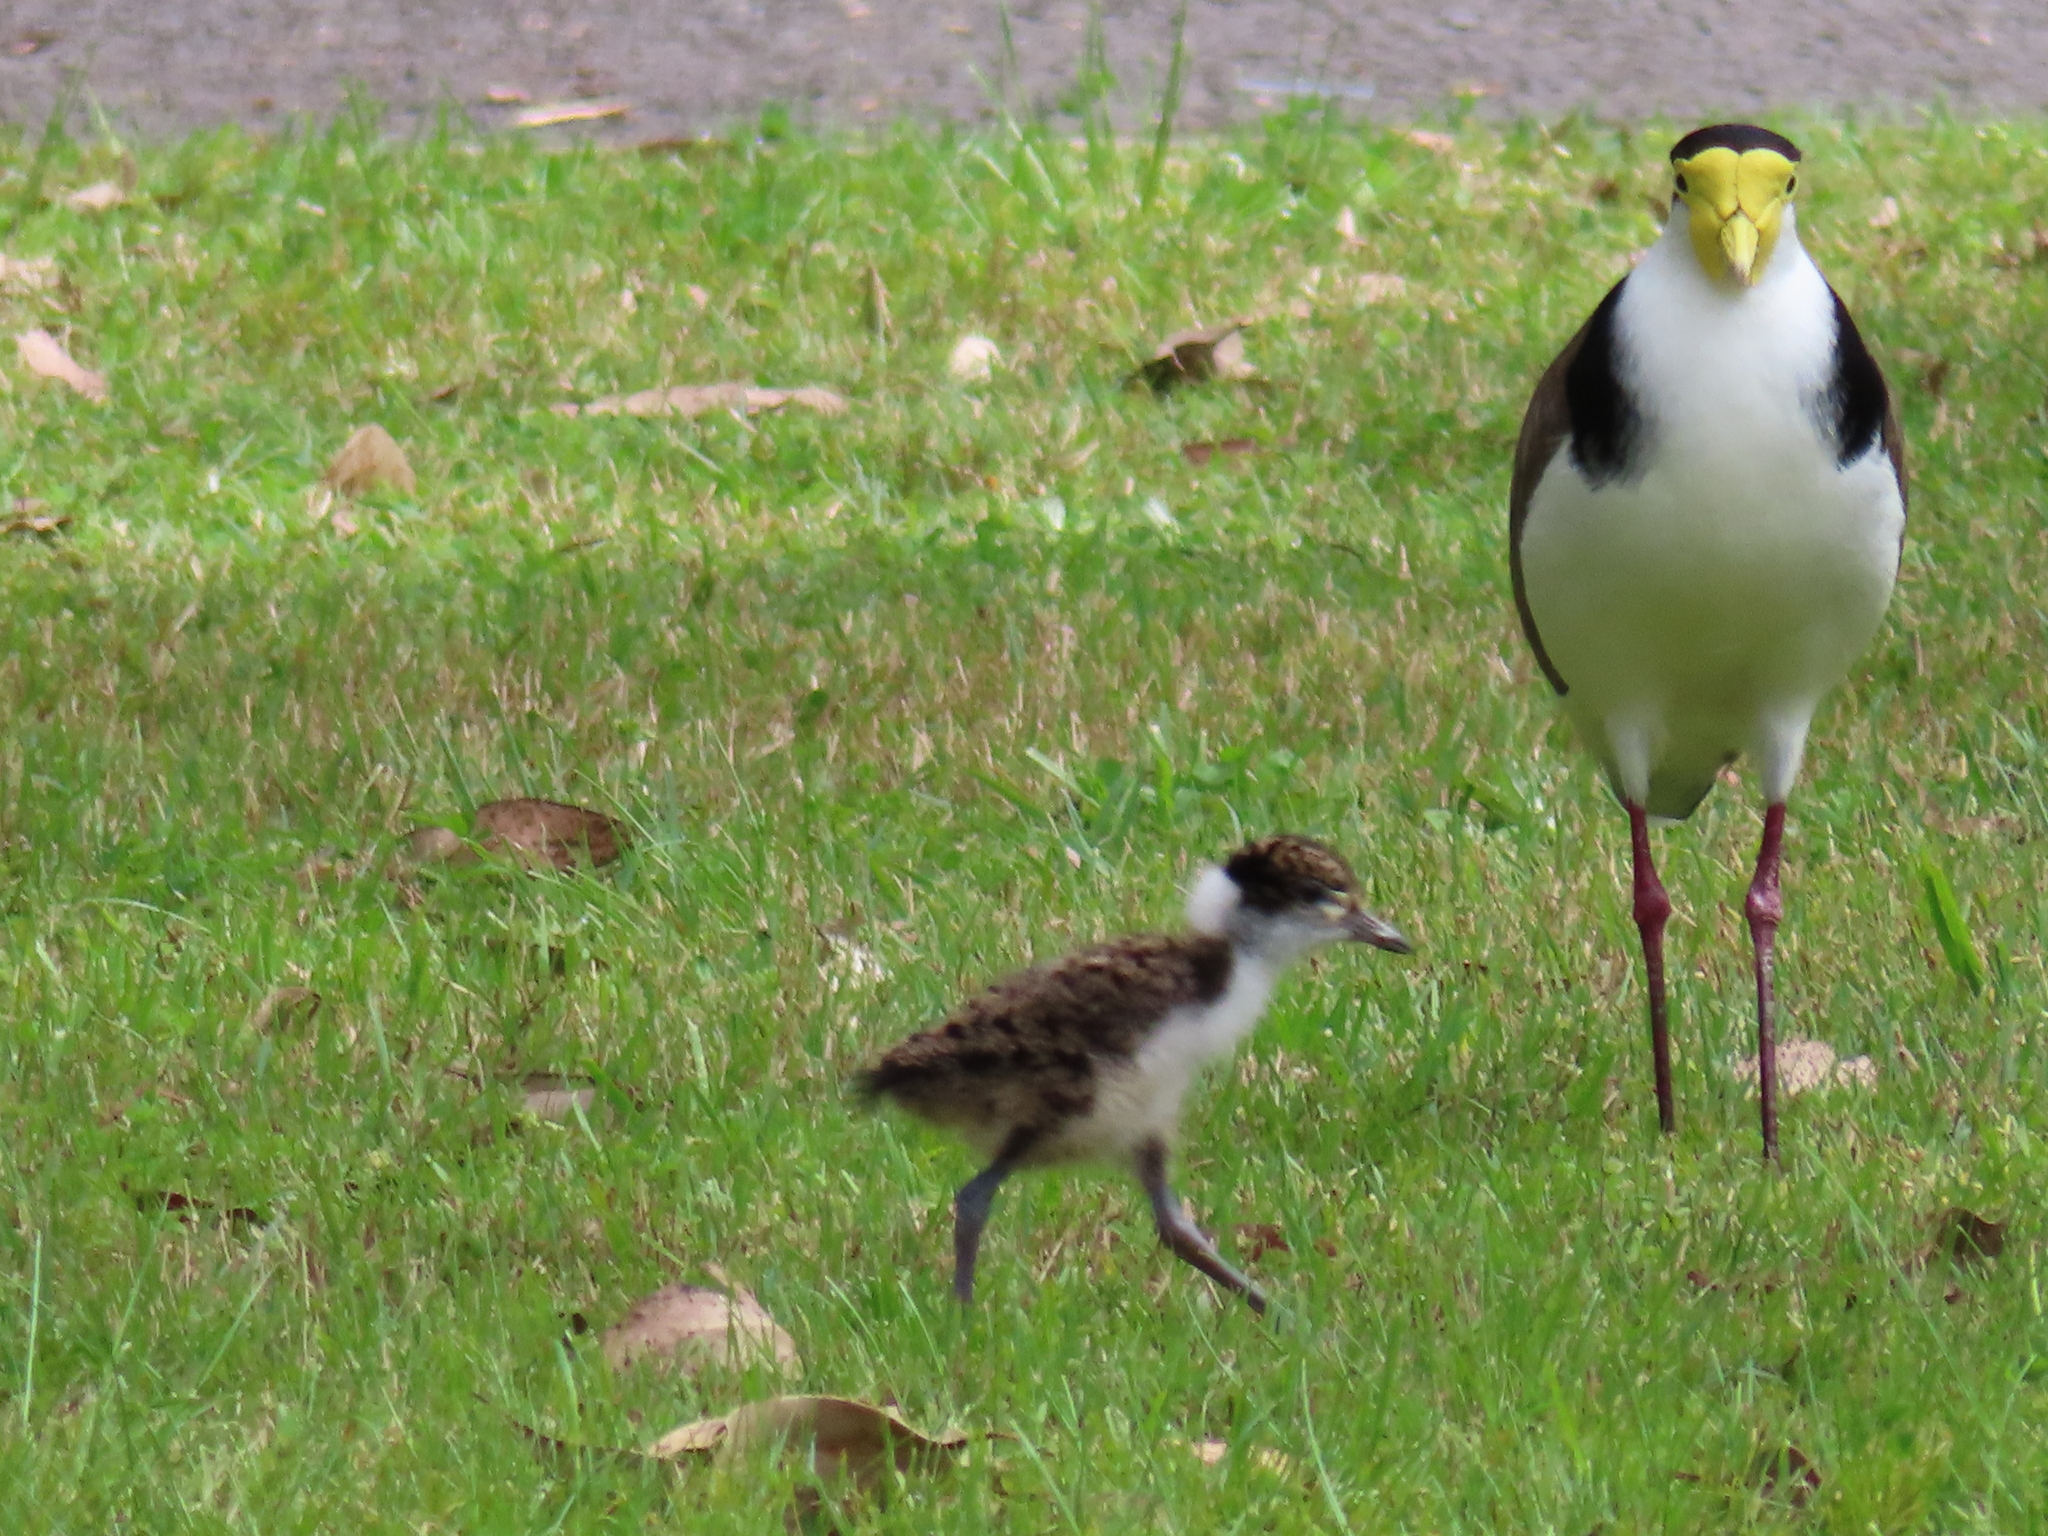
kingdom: Animalia
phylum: Chordata
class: Aves
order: Charadriiformes
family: Charadriidae
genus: Vanellus
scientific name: Vanellus miles
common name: Masked lapwing
